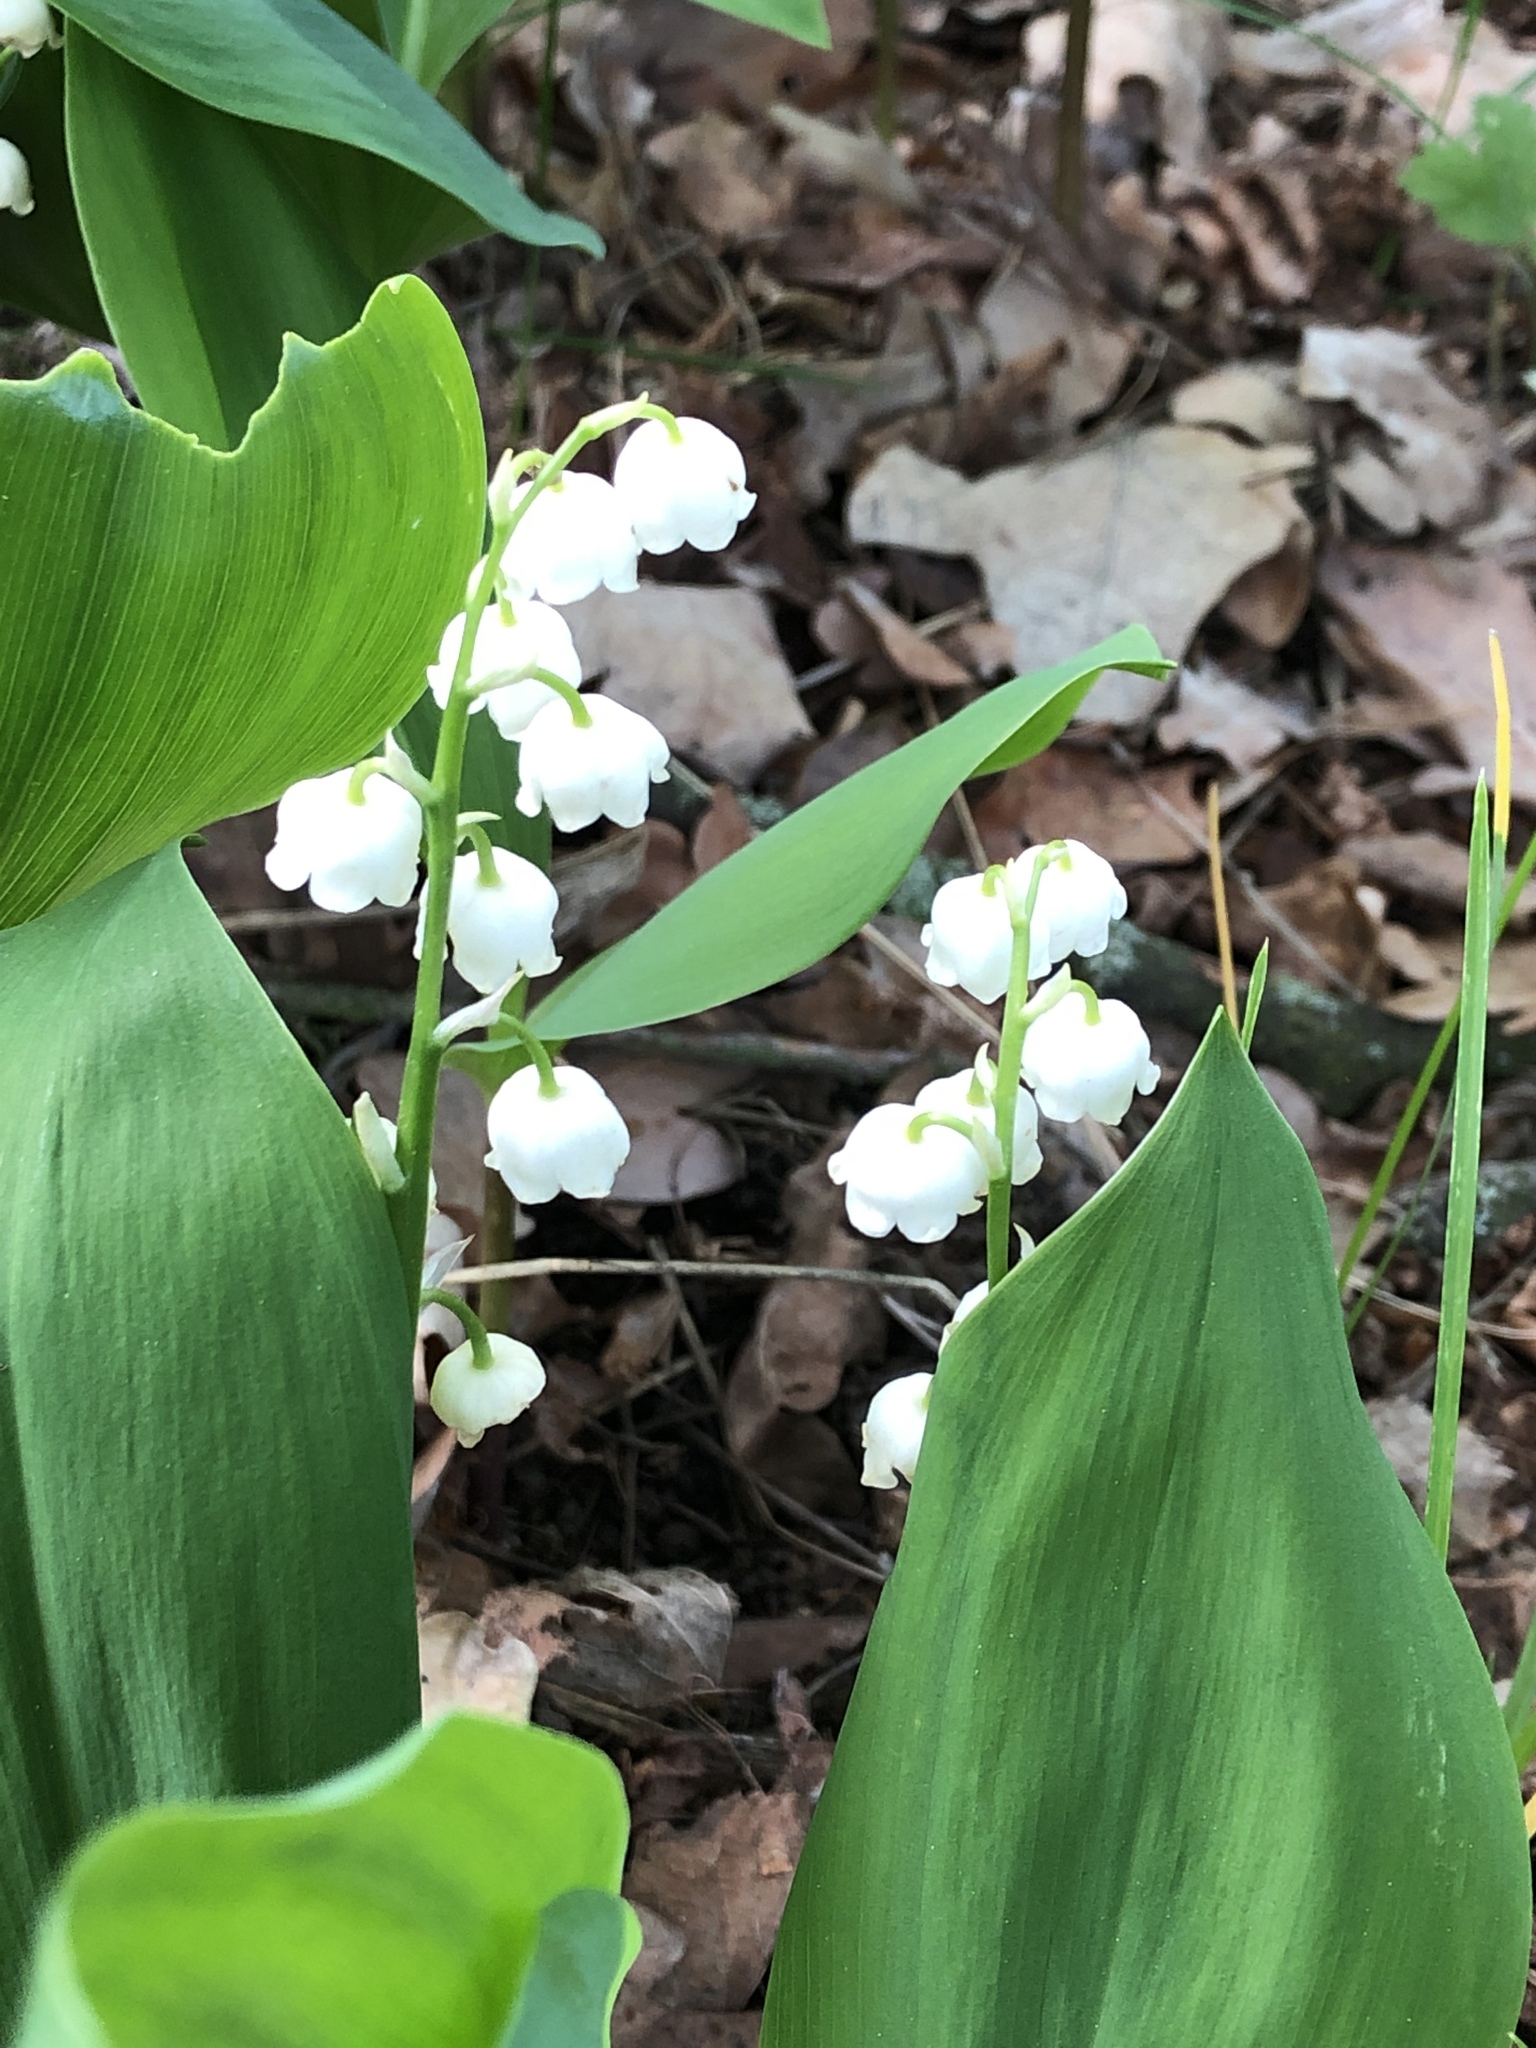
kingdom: Plantae
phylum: Tracheophyta
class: Liliopsida
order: Asparagales
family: Asparagaceae
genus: Convallaria
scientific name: Convallaria majalis
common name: Lily-of-the-valley
